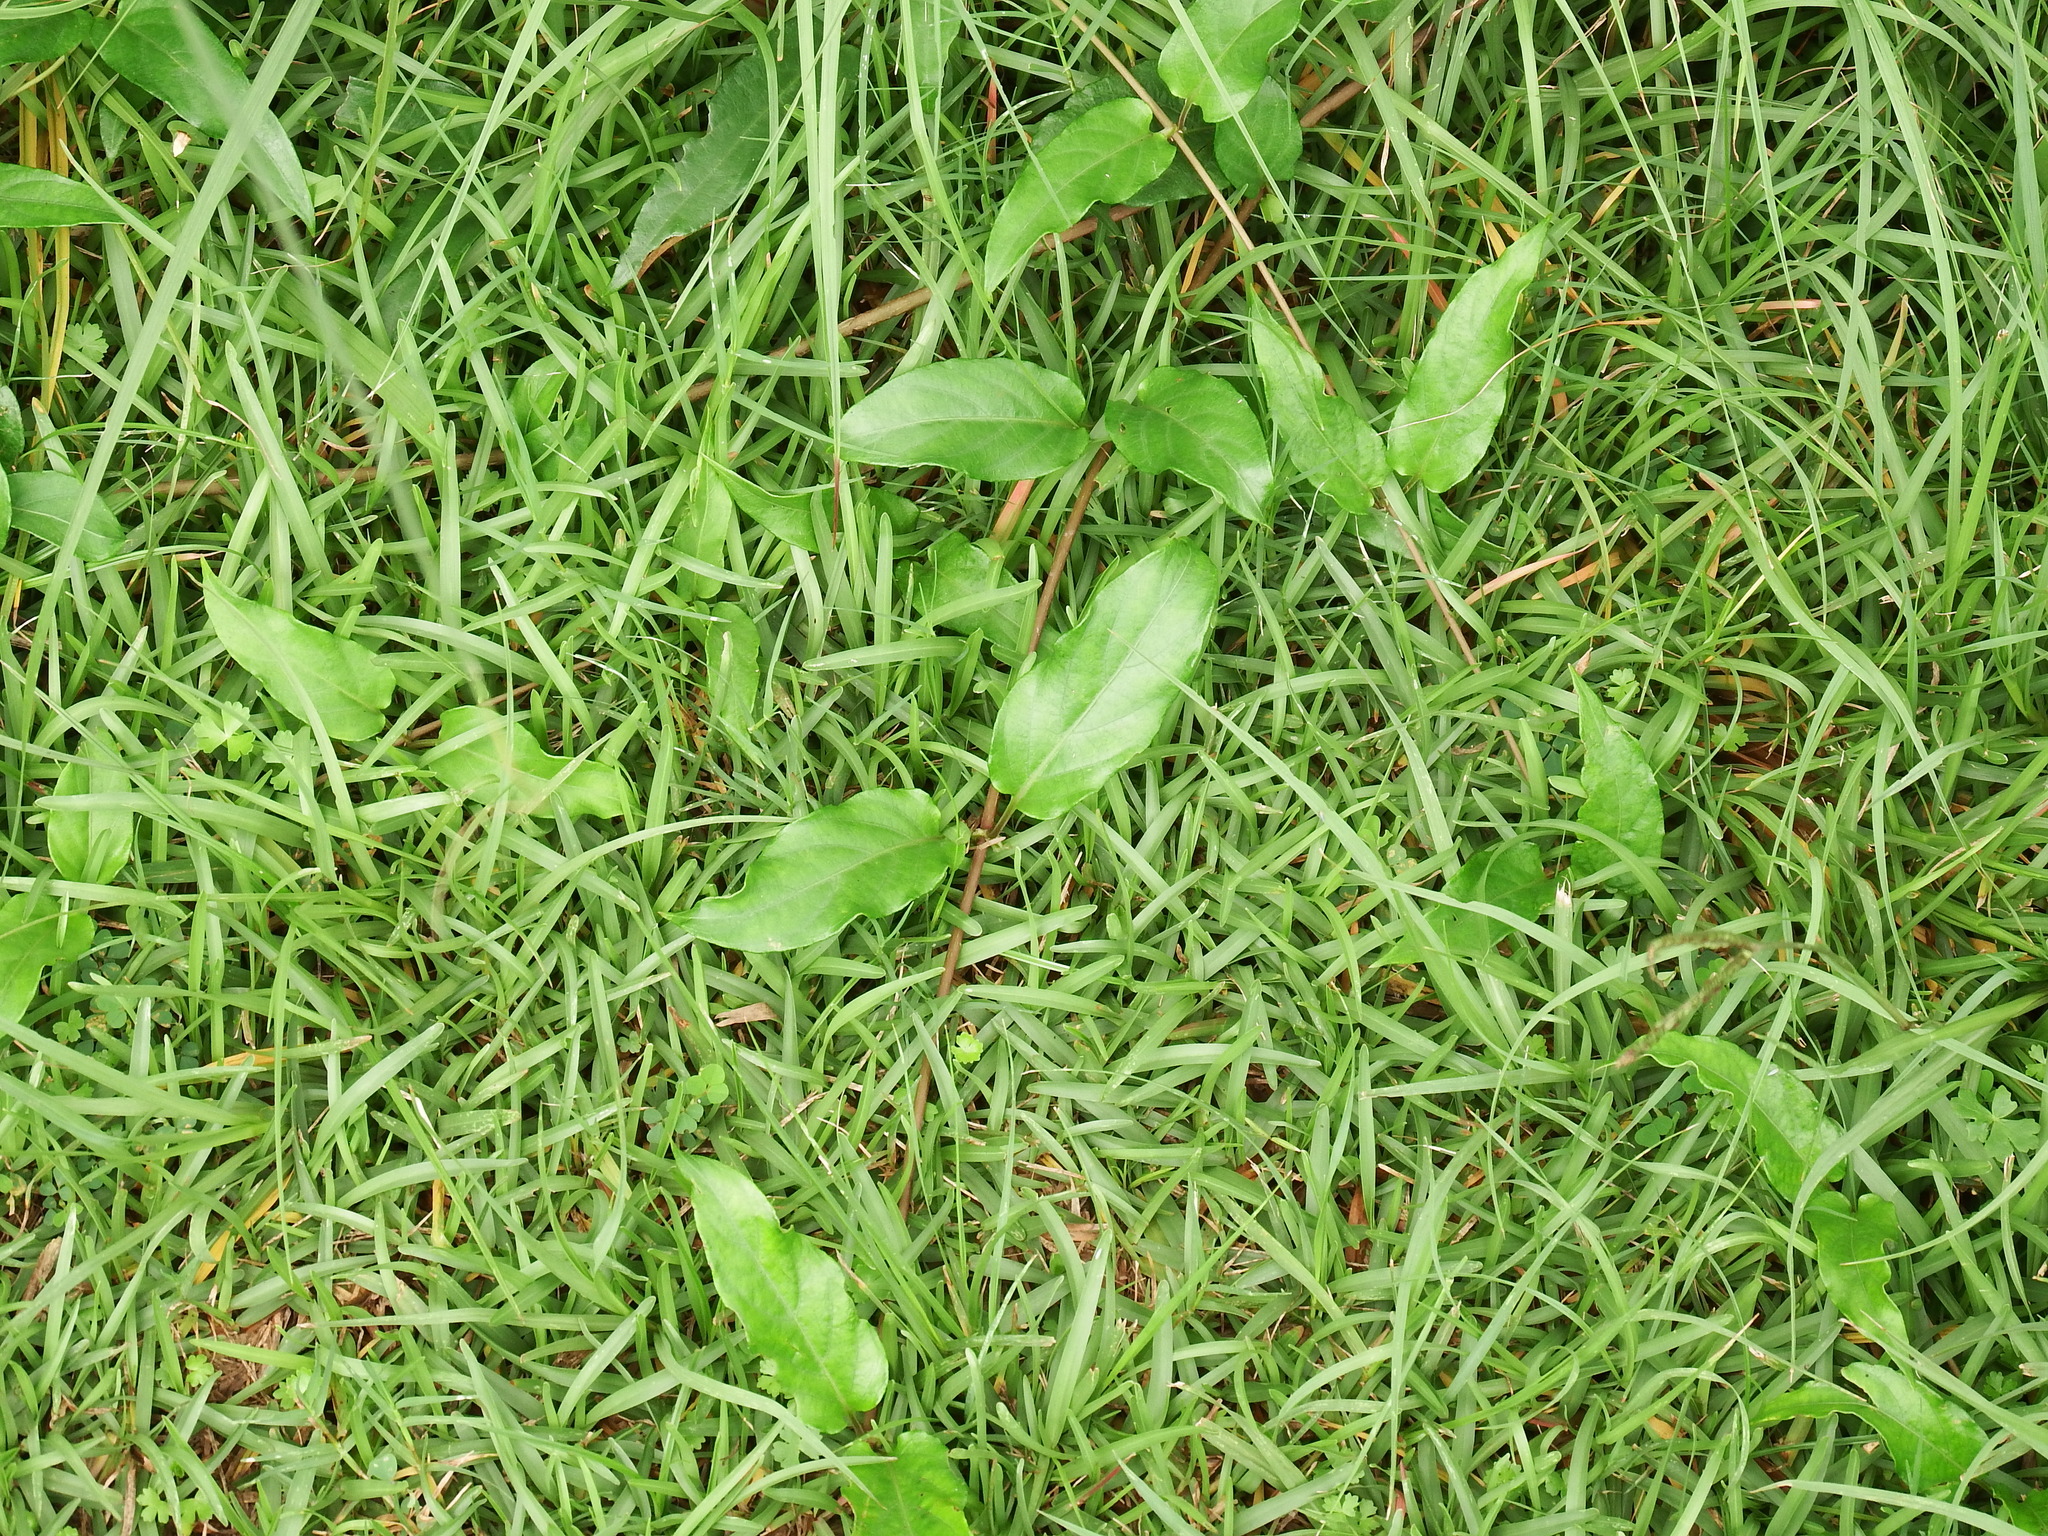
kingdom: Plantae
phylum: Tracheophyta
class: Magnoliopsida
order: Gentianales
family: Rubiaceae
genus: Paederia
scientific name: Paederia foetida
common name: Stinkvine
